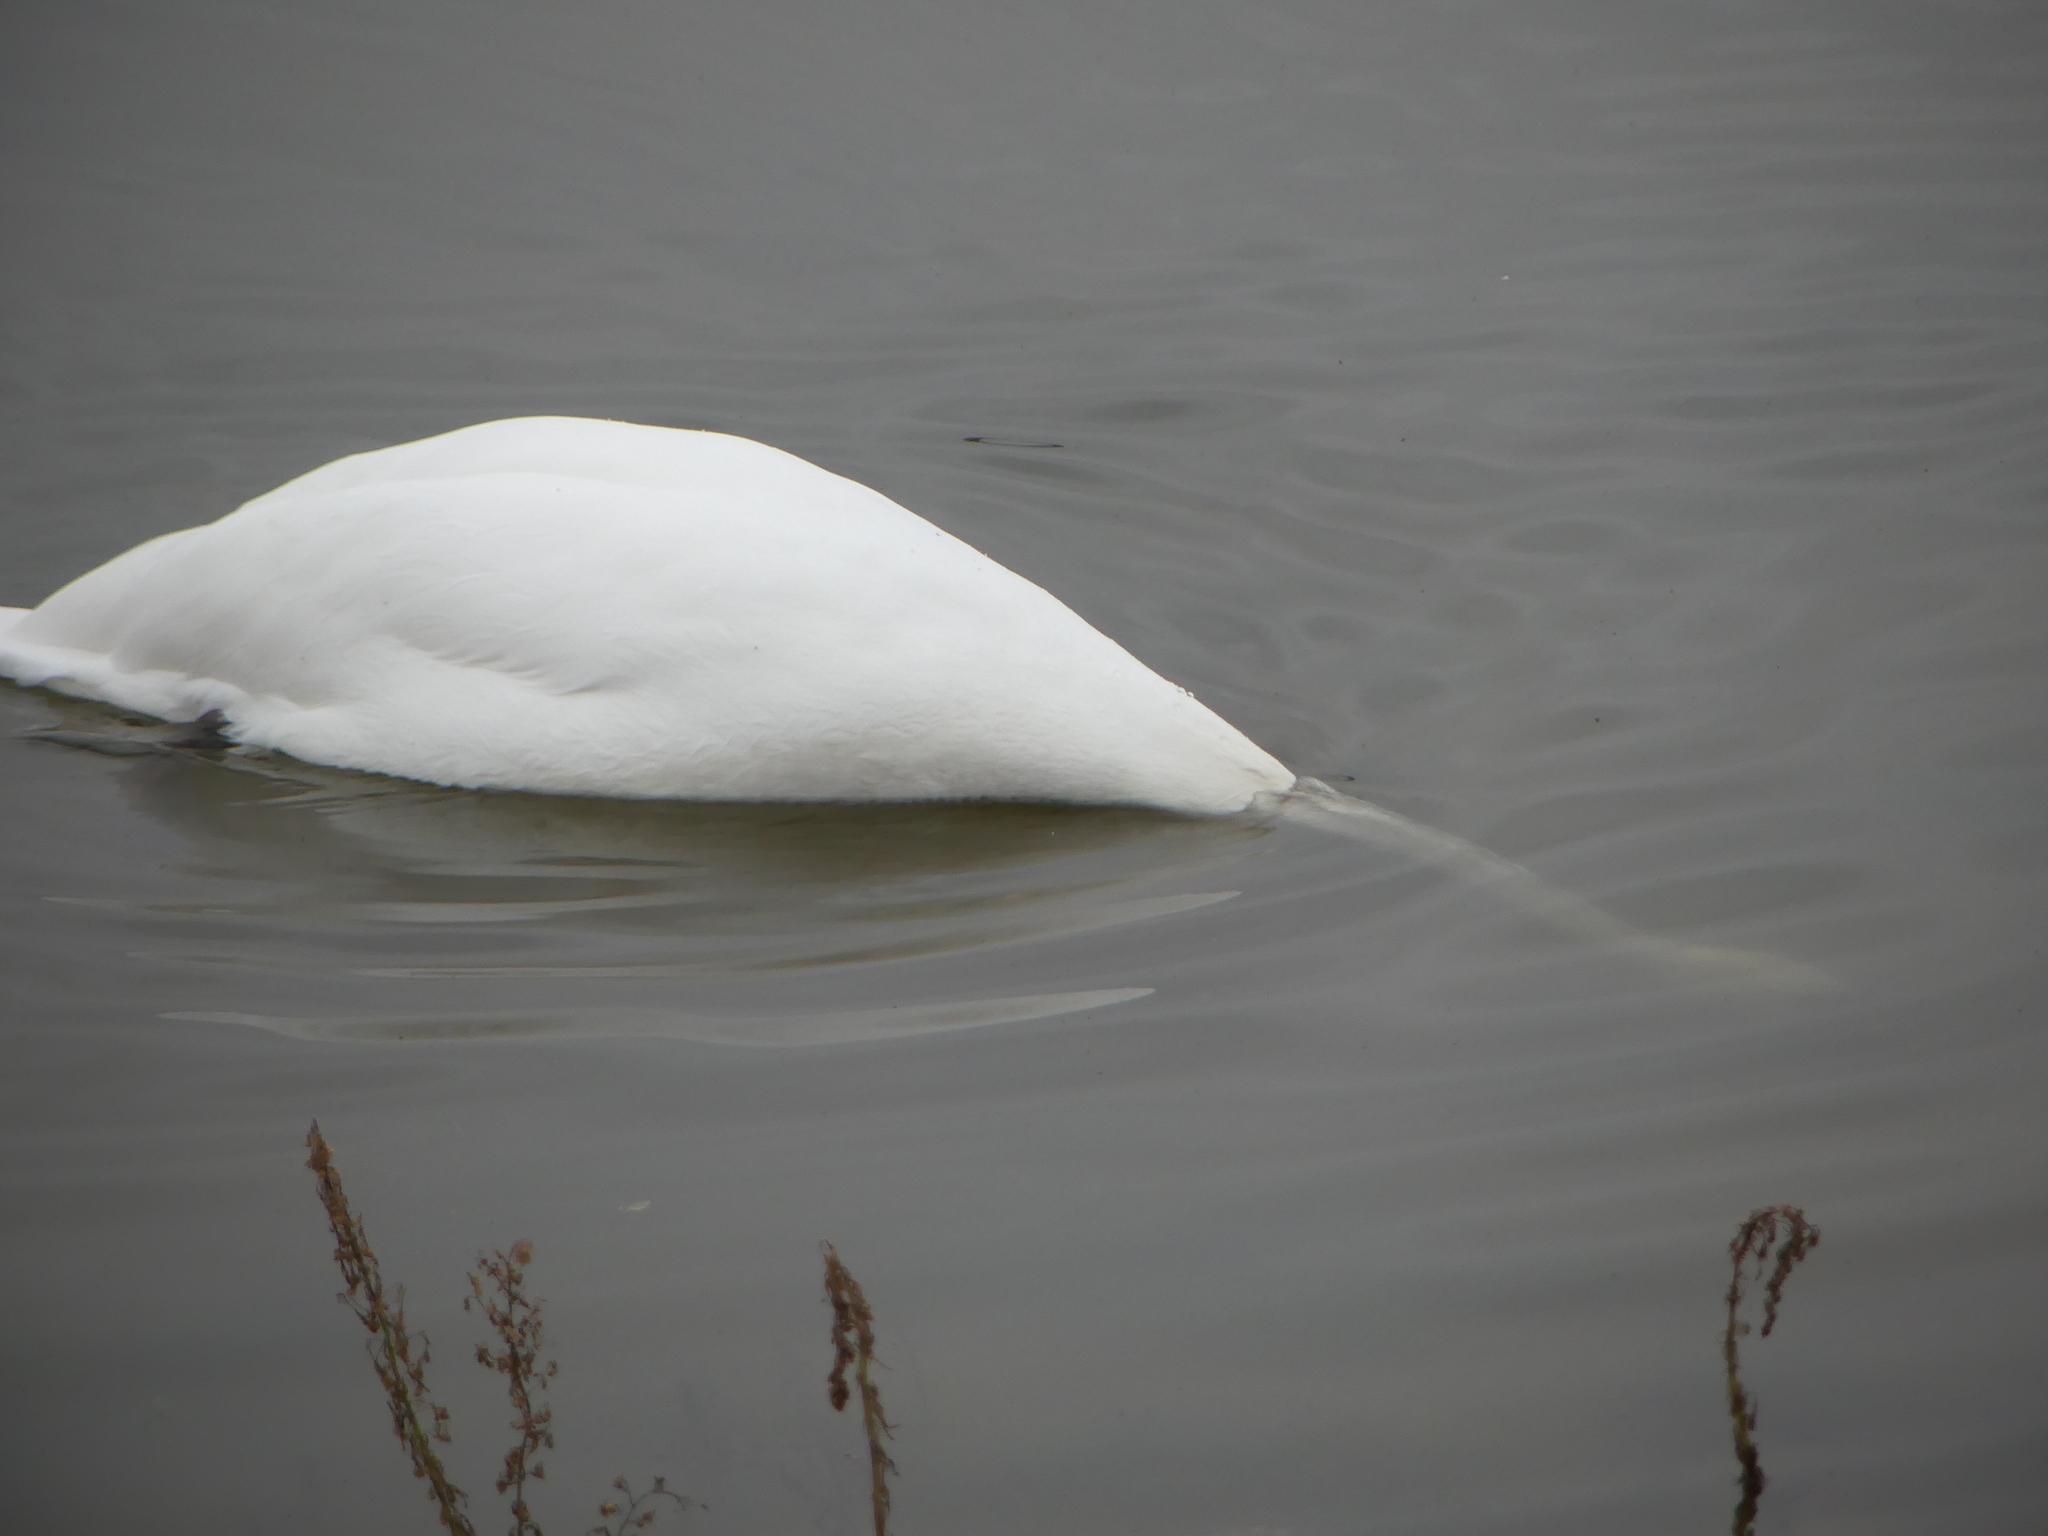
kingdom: Animalia
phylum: Chordata
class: Aves
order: Anseriformes
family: Anatidae
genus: Cygnus
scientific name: Cygnus olor
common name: Mute swan
